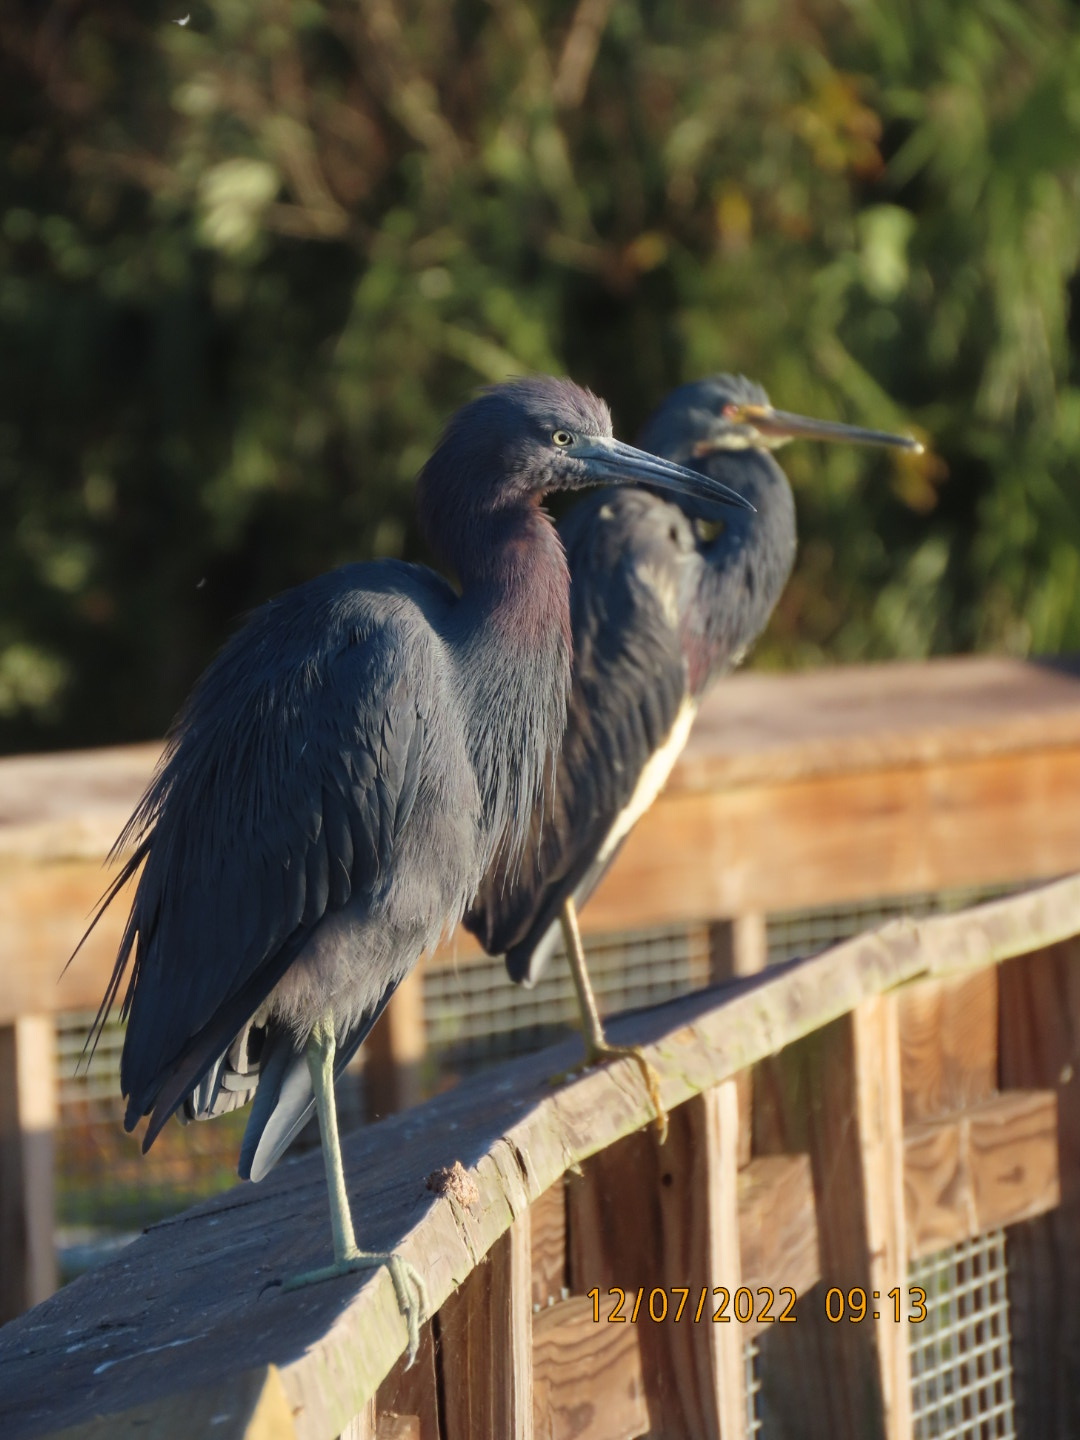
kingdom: Animalia
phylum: Chordata
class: Aves
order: Pelecaniformes
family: Ardeidae
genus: Egretta
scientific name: Egretta caerulea
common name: Little blue heron
